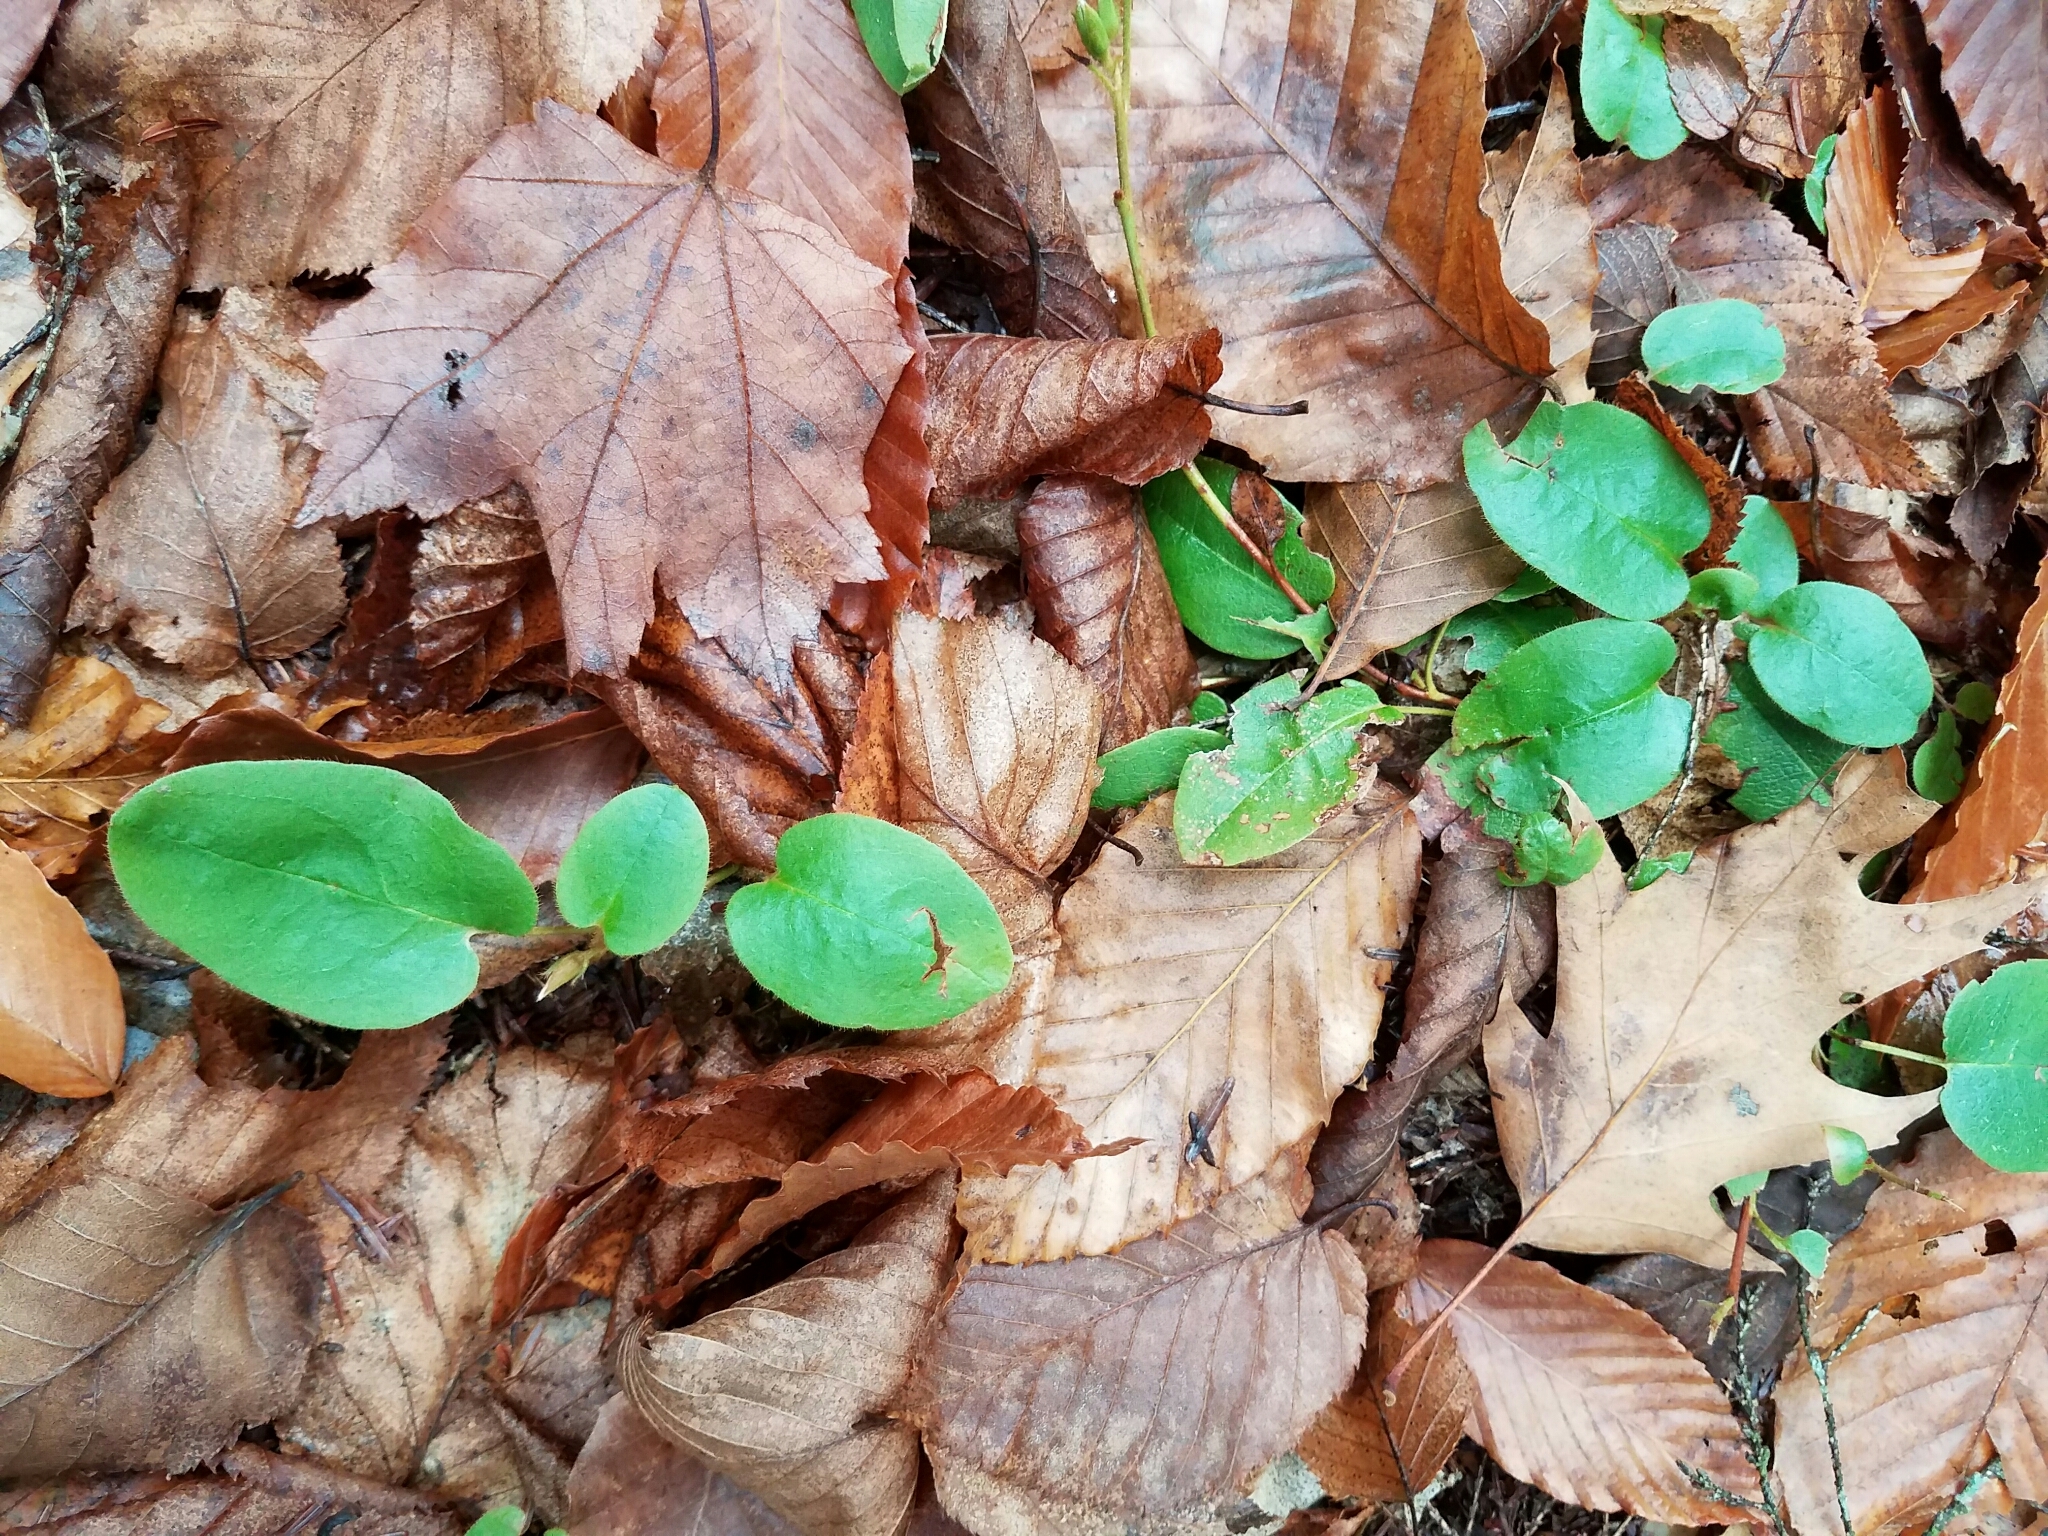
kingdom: Plantae
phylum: Tracheophyta
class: Magnoliopsida
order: Ericales
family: Ericaceae
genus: Epigaea
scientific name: Epigaea repens
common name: Gravelroot
